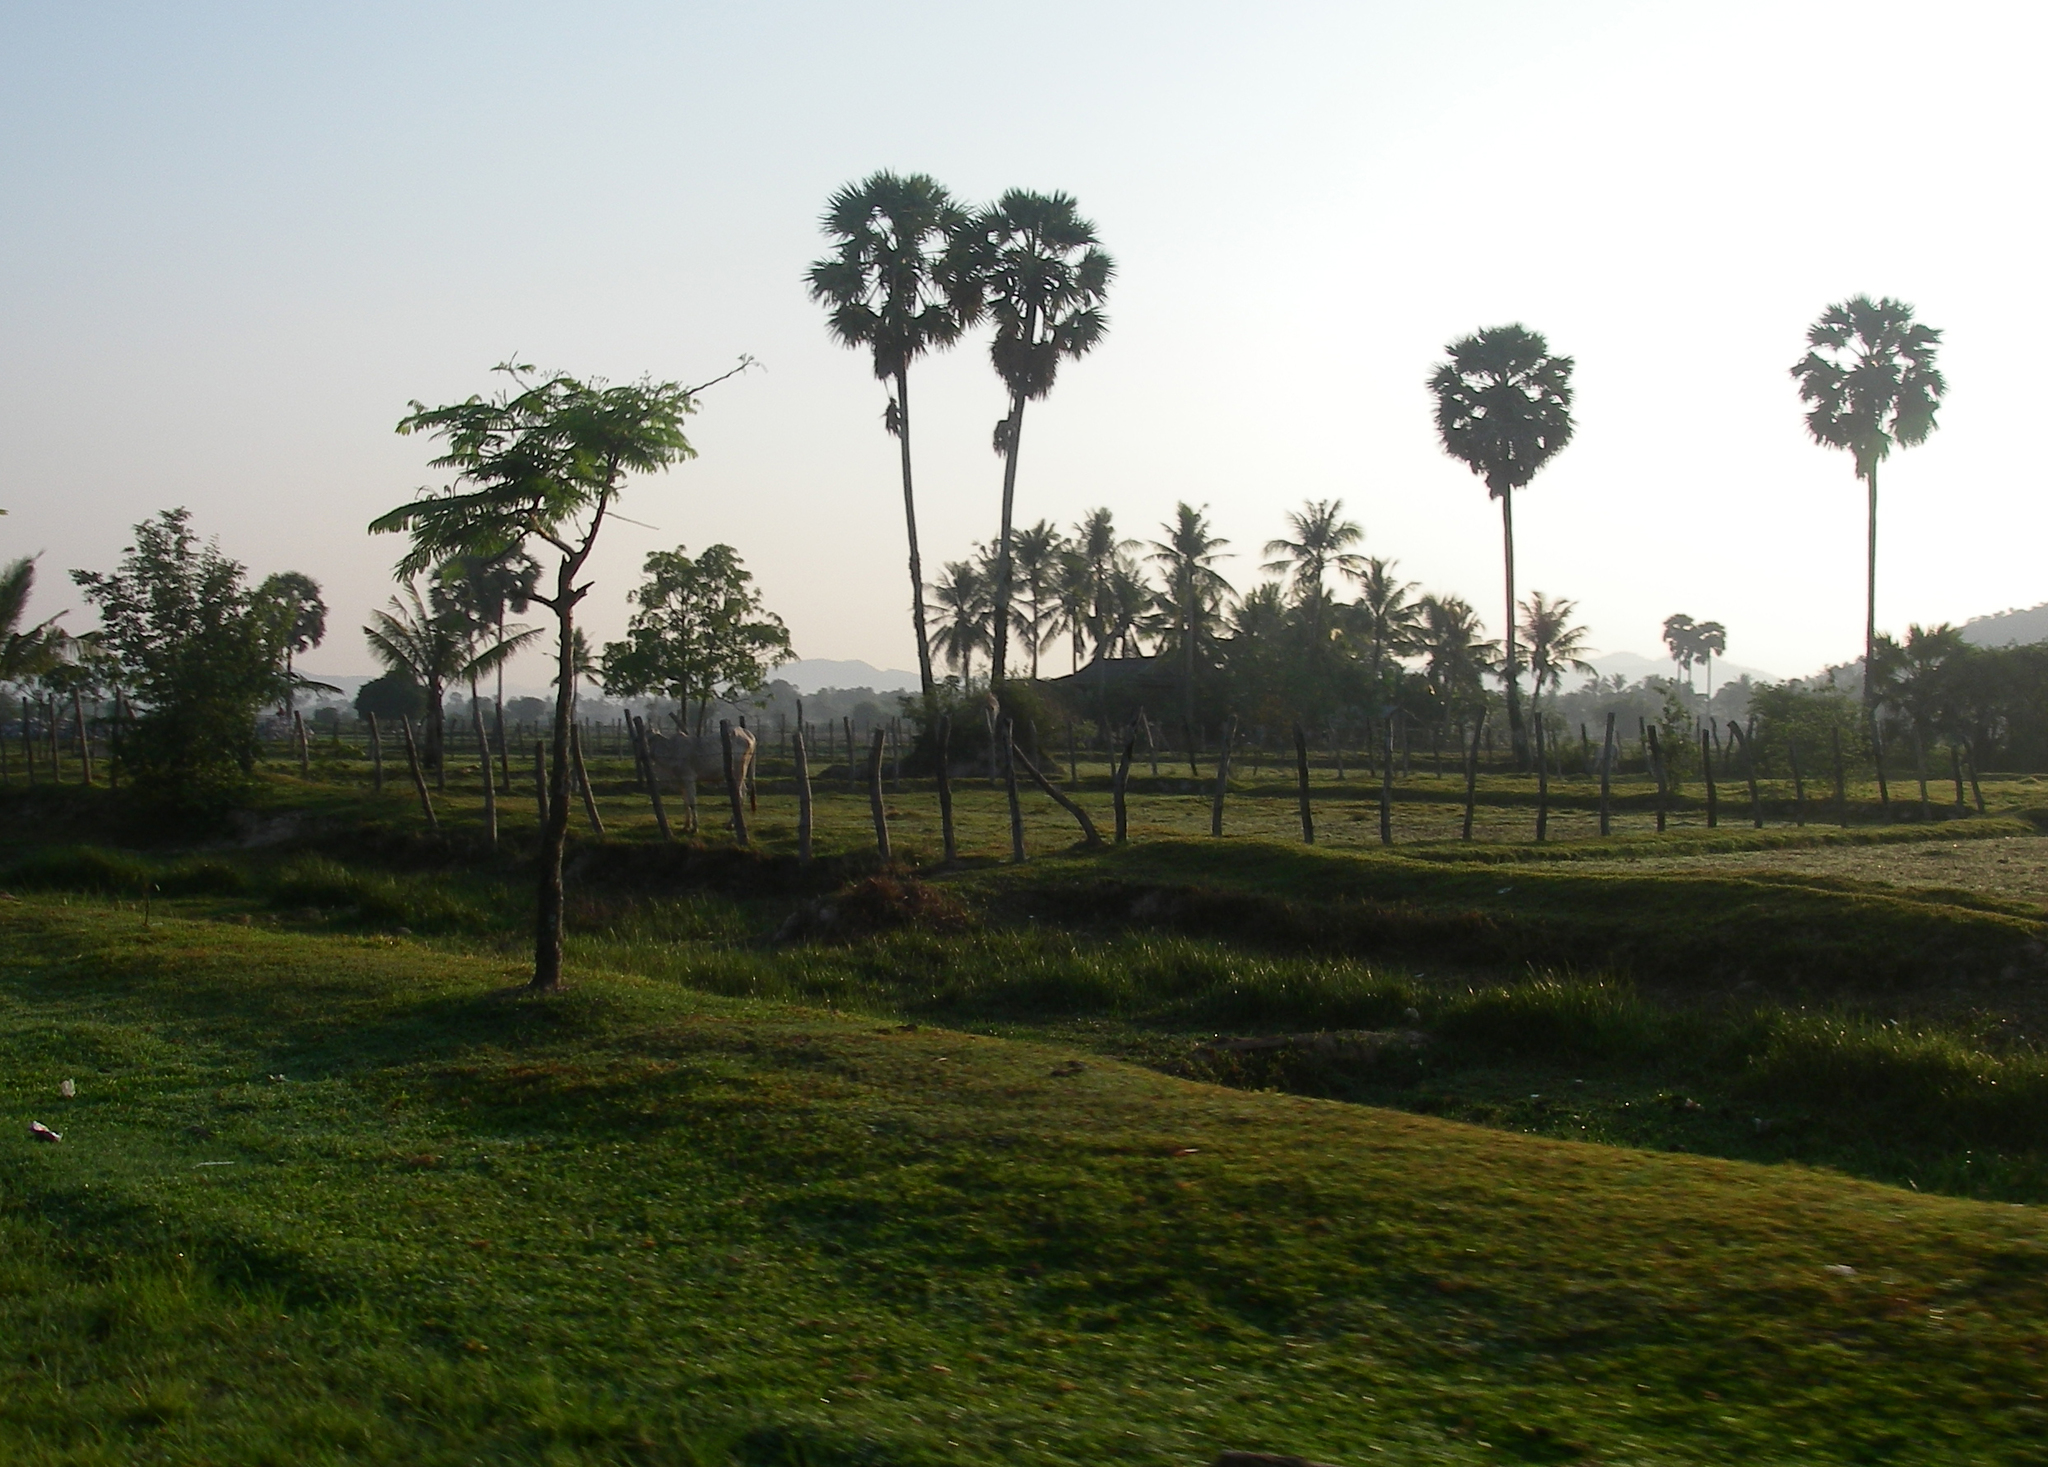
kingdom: Plantae
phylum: Tracheophyta
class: Liliopsida
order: Arecales
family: Arecaceae
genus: Borassus
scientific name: Borassus flabellifer
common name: Palmyra palm
